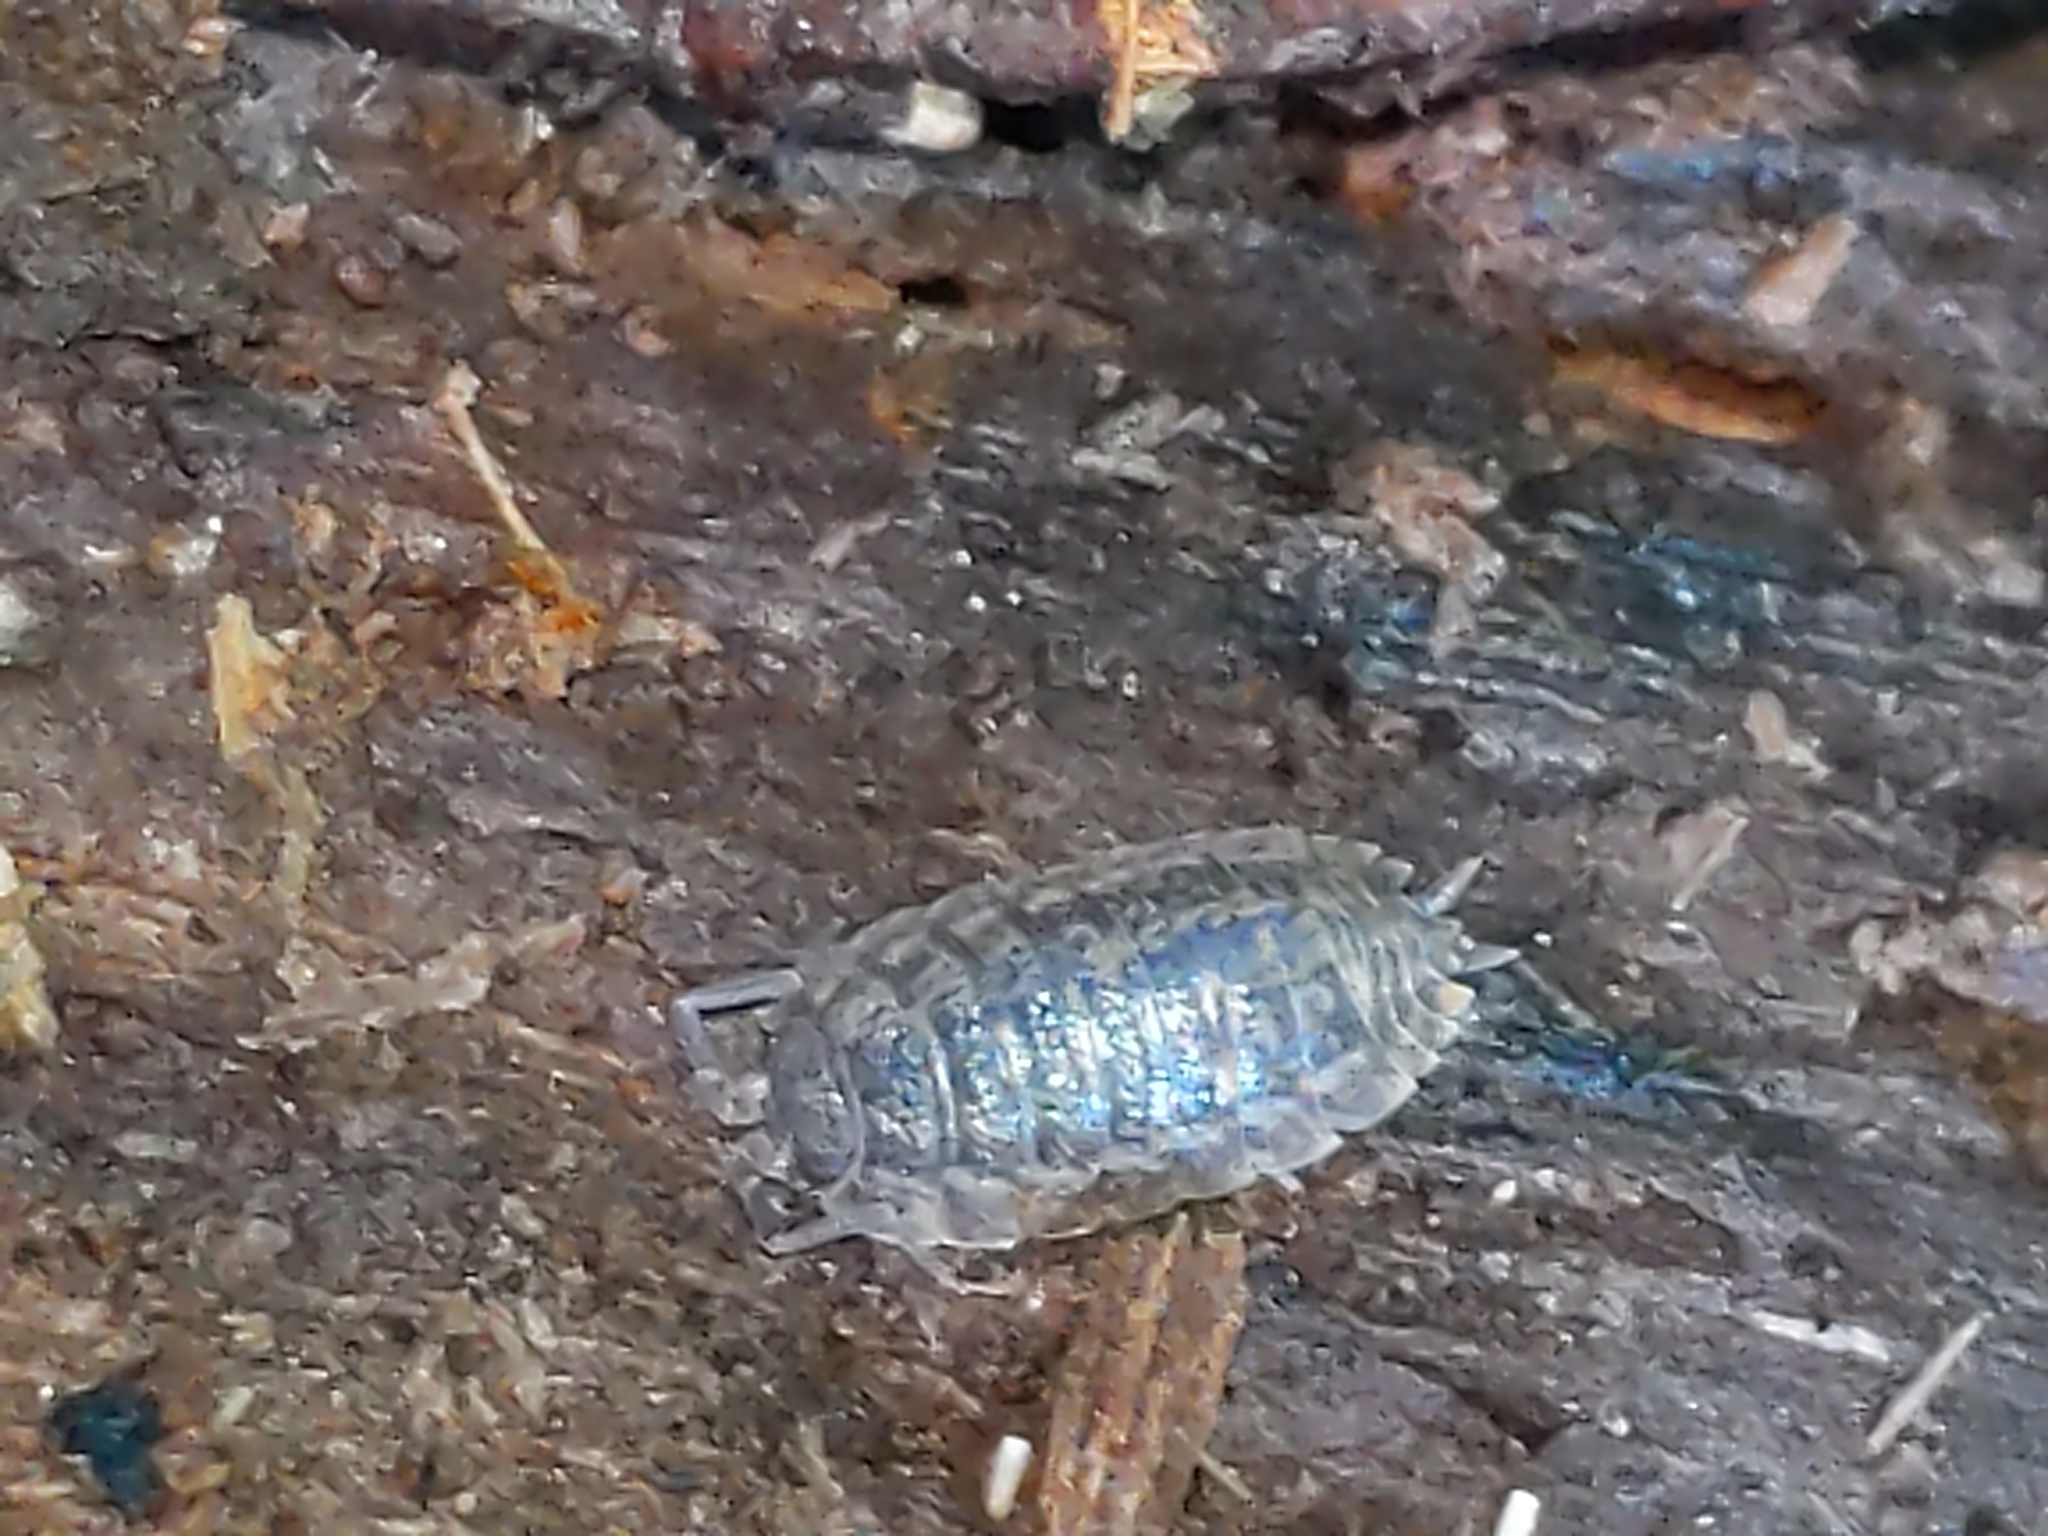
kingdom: Animalia
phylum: Arthropoda
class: Malacostraca
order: Isopoda
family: Trachelipodidae
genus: Trachelipus
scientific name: Trachelipus rathkii
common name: Isopod
